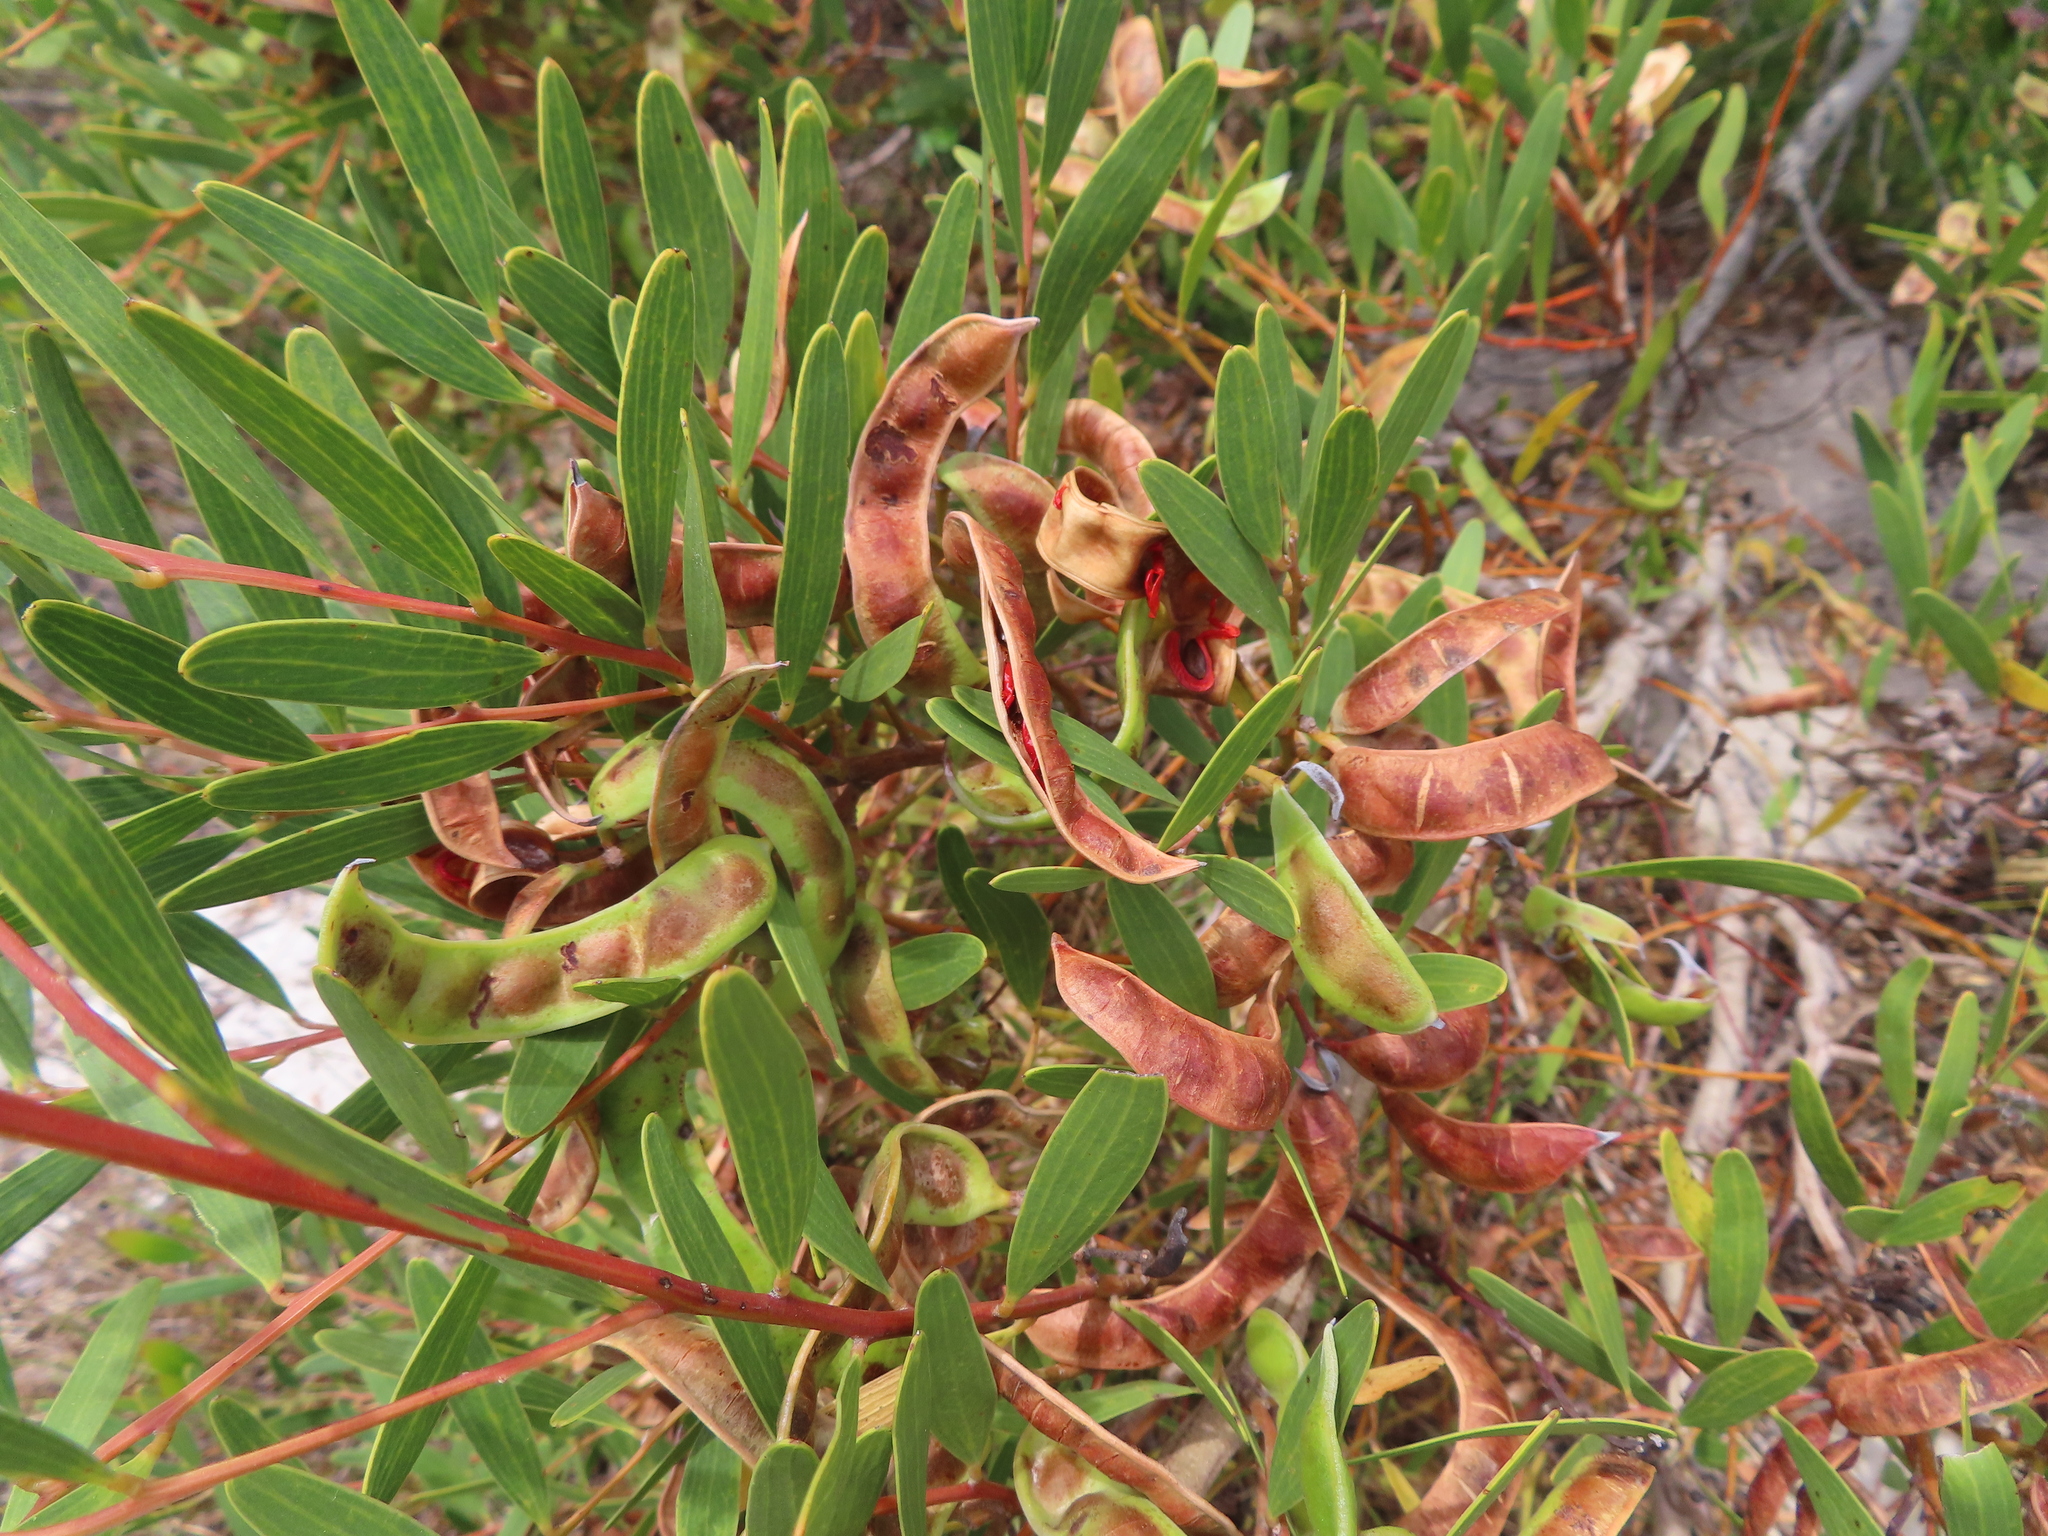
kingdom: Plantae
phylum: Tracheophyta
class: Magnoliopsida
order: Fabales
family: Fabaceae
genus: Acacia
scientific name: Acacia cyclops
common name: Coastal wattle
